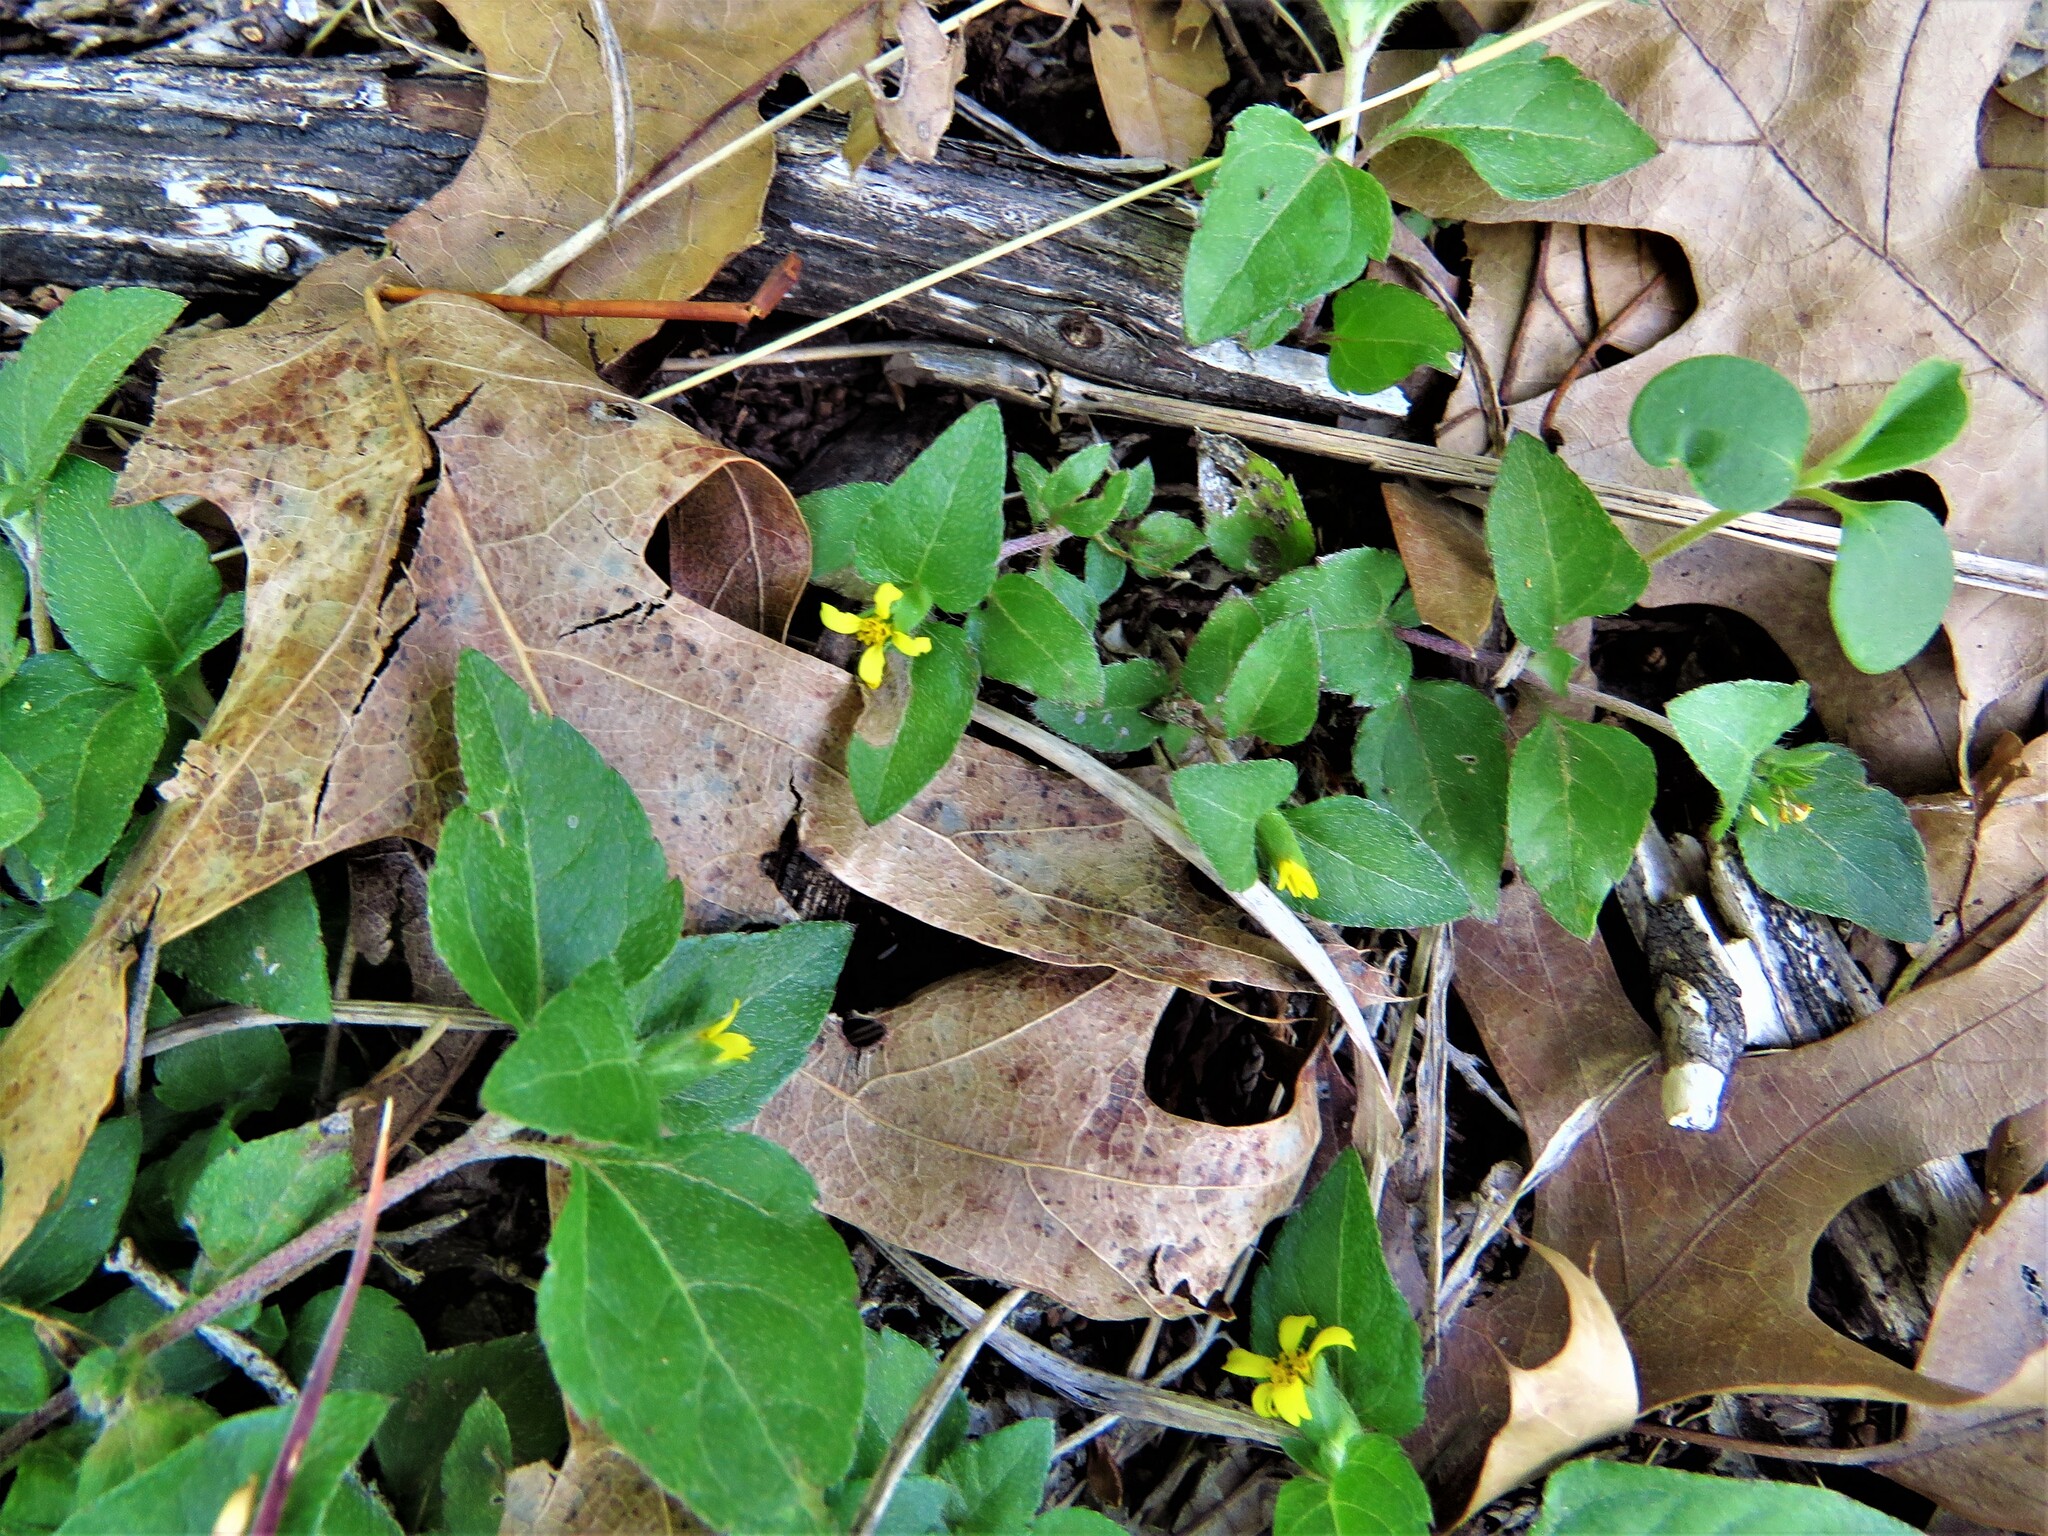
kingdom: Plantae
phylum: Tracheophyta
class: Magnoliopsida
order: Asterales
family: Asteraceae
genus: Calyptocarpus
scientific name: Calyptocarpus vialis
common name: Straggler daisy
